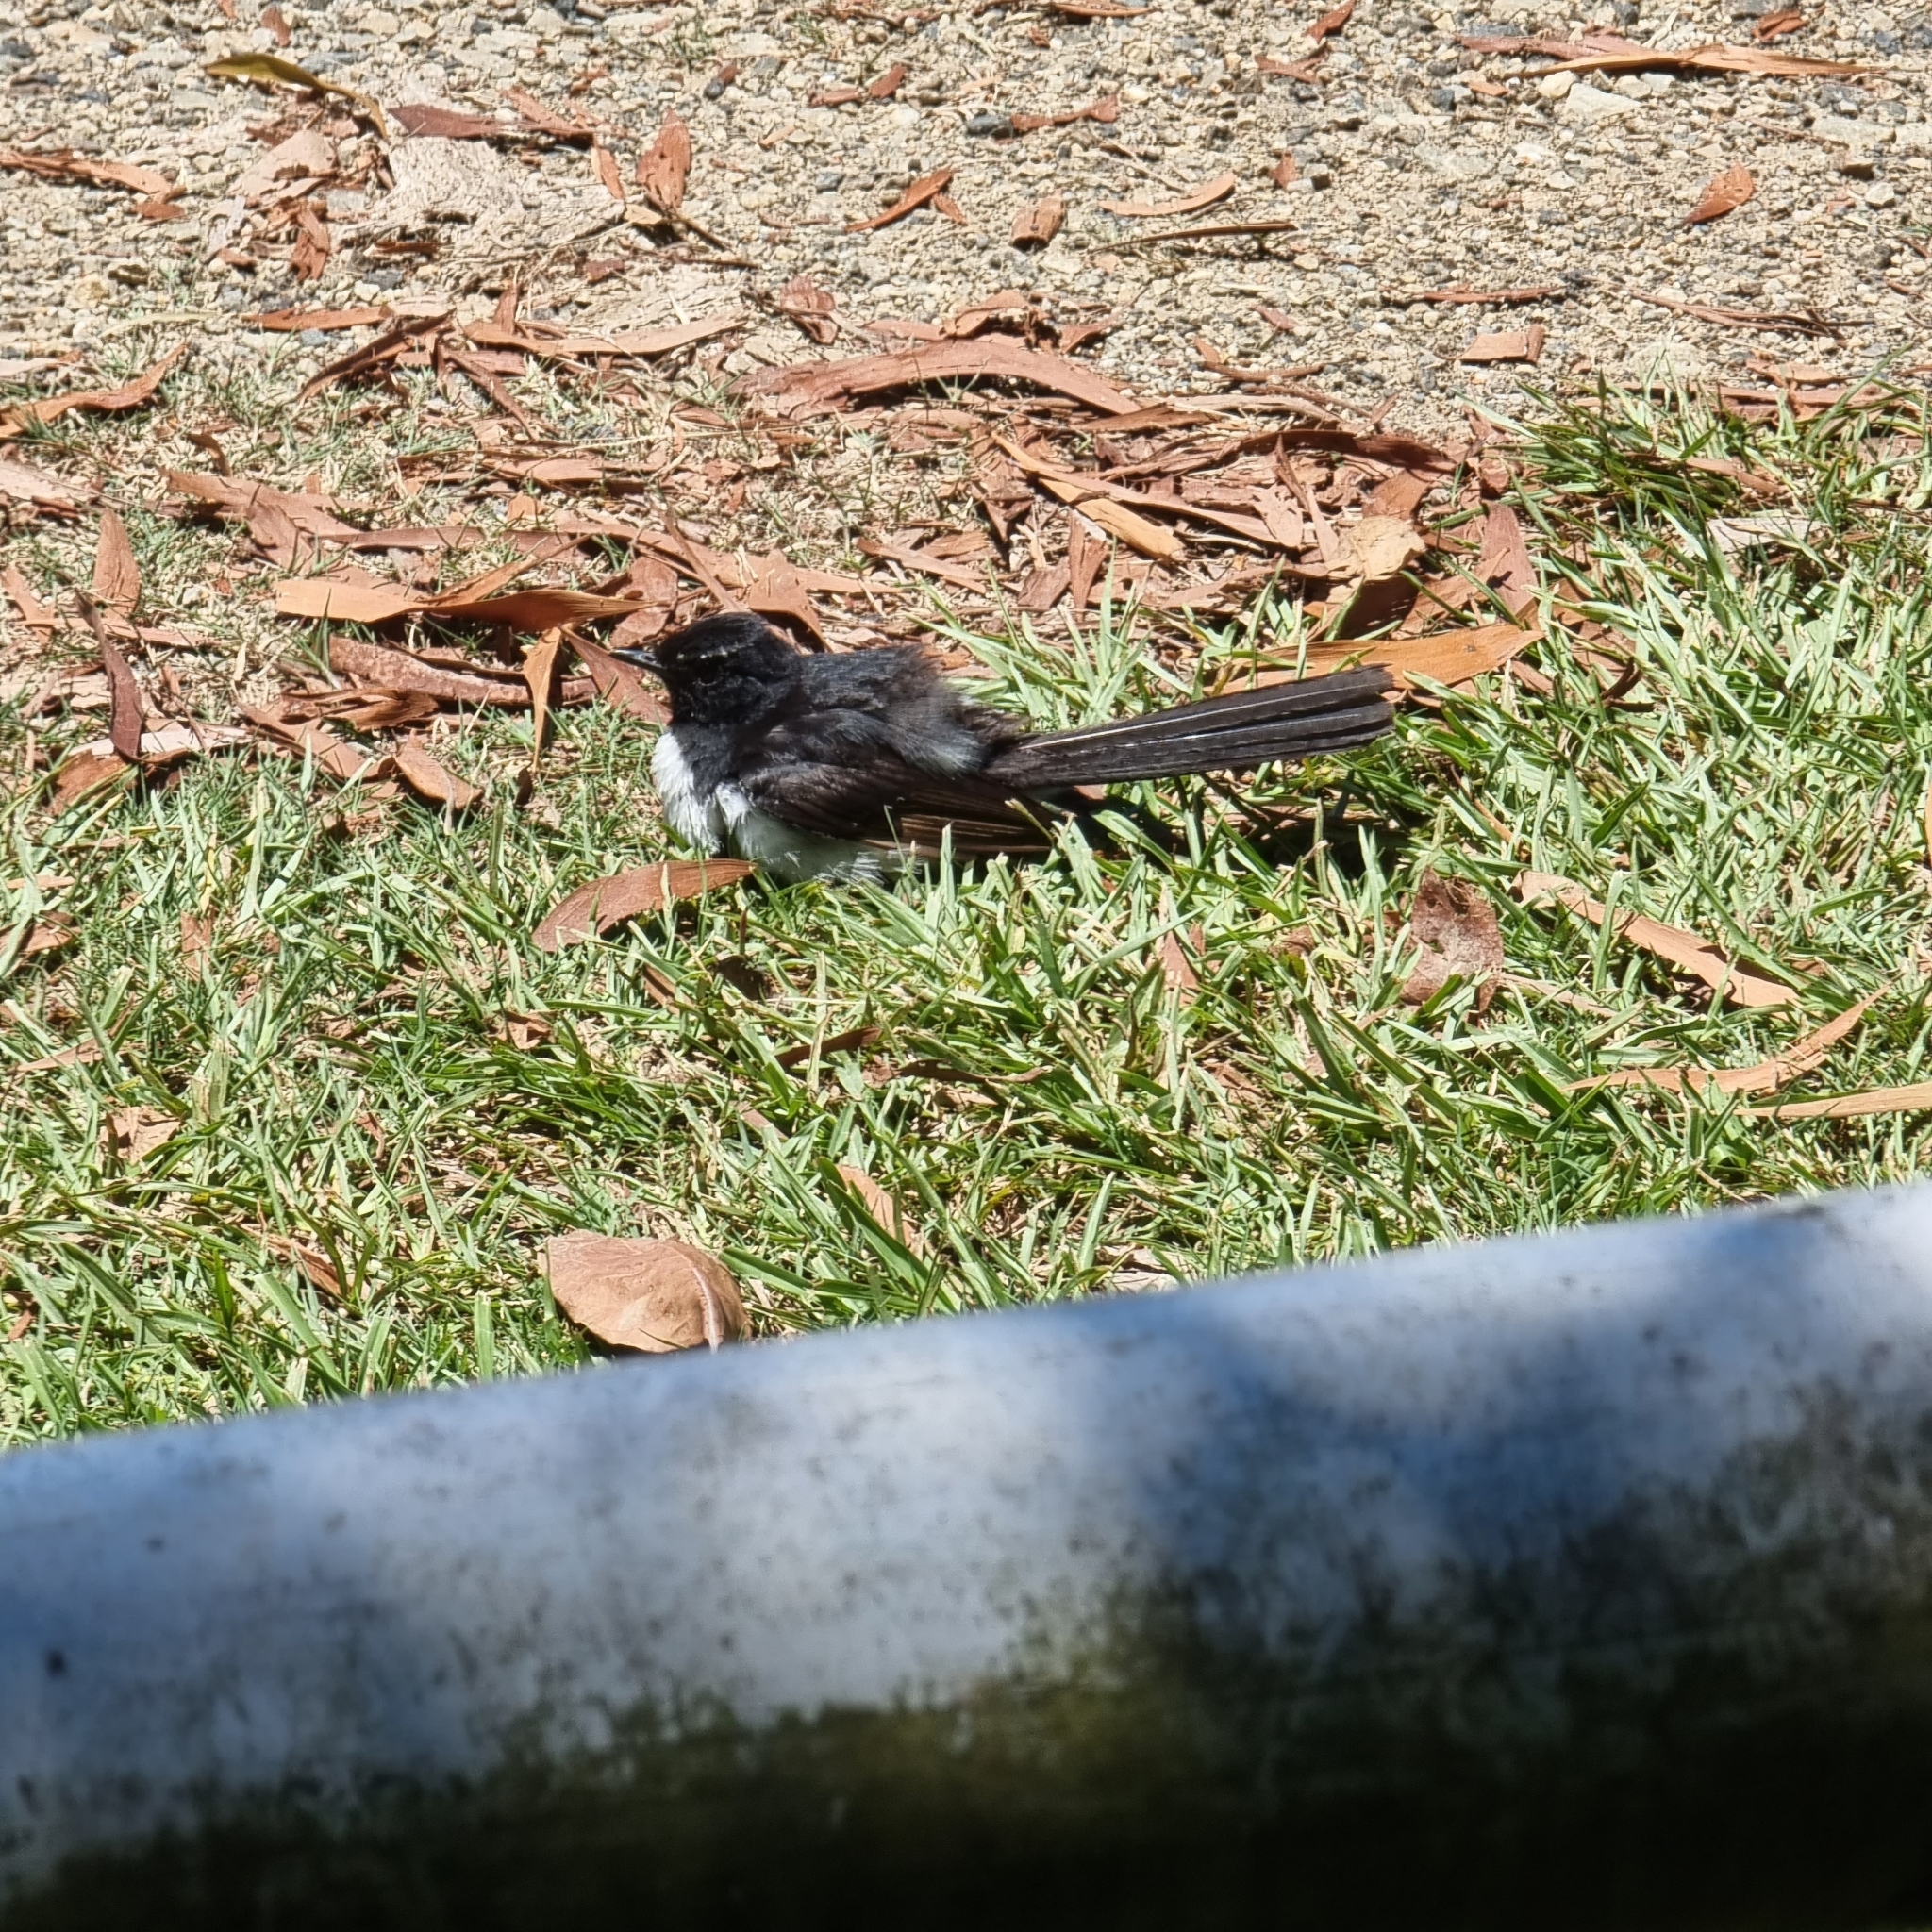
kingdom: Animalia
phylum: Chordata
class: Aves
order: Passeriformes
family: Rhipiduridae
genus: Rhipidura
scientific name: Rhipidura leucophrys
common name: Willie wagtail
